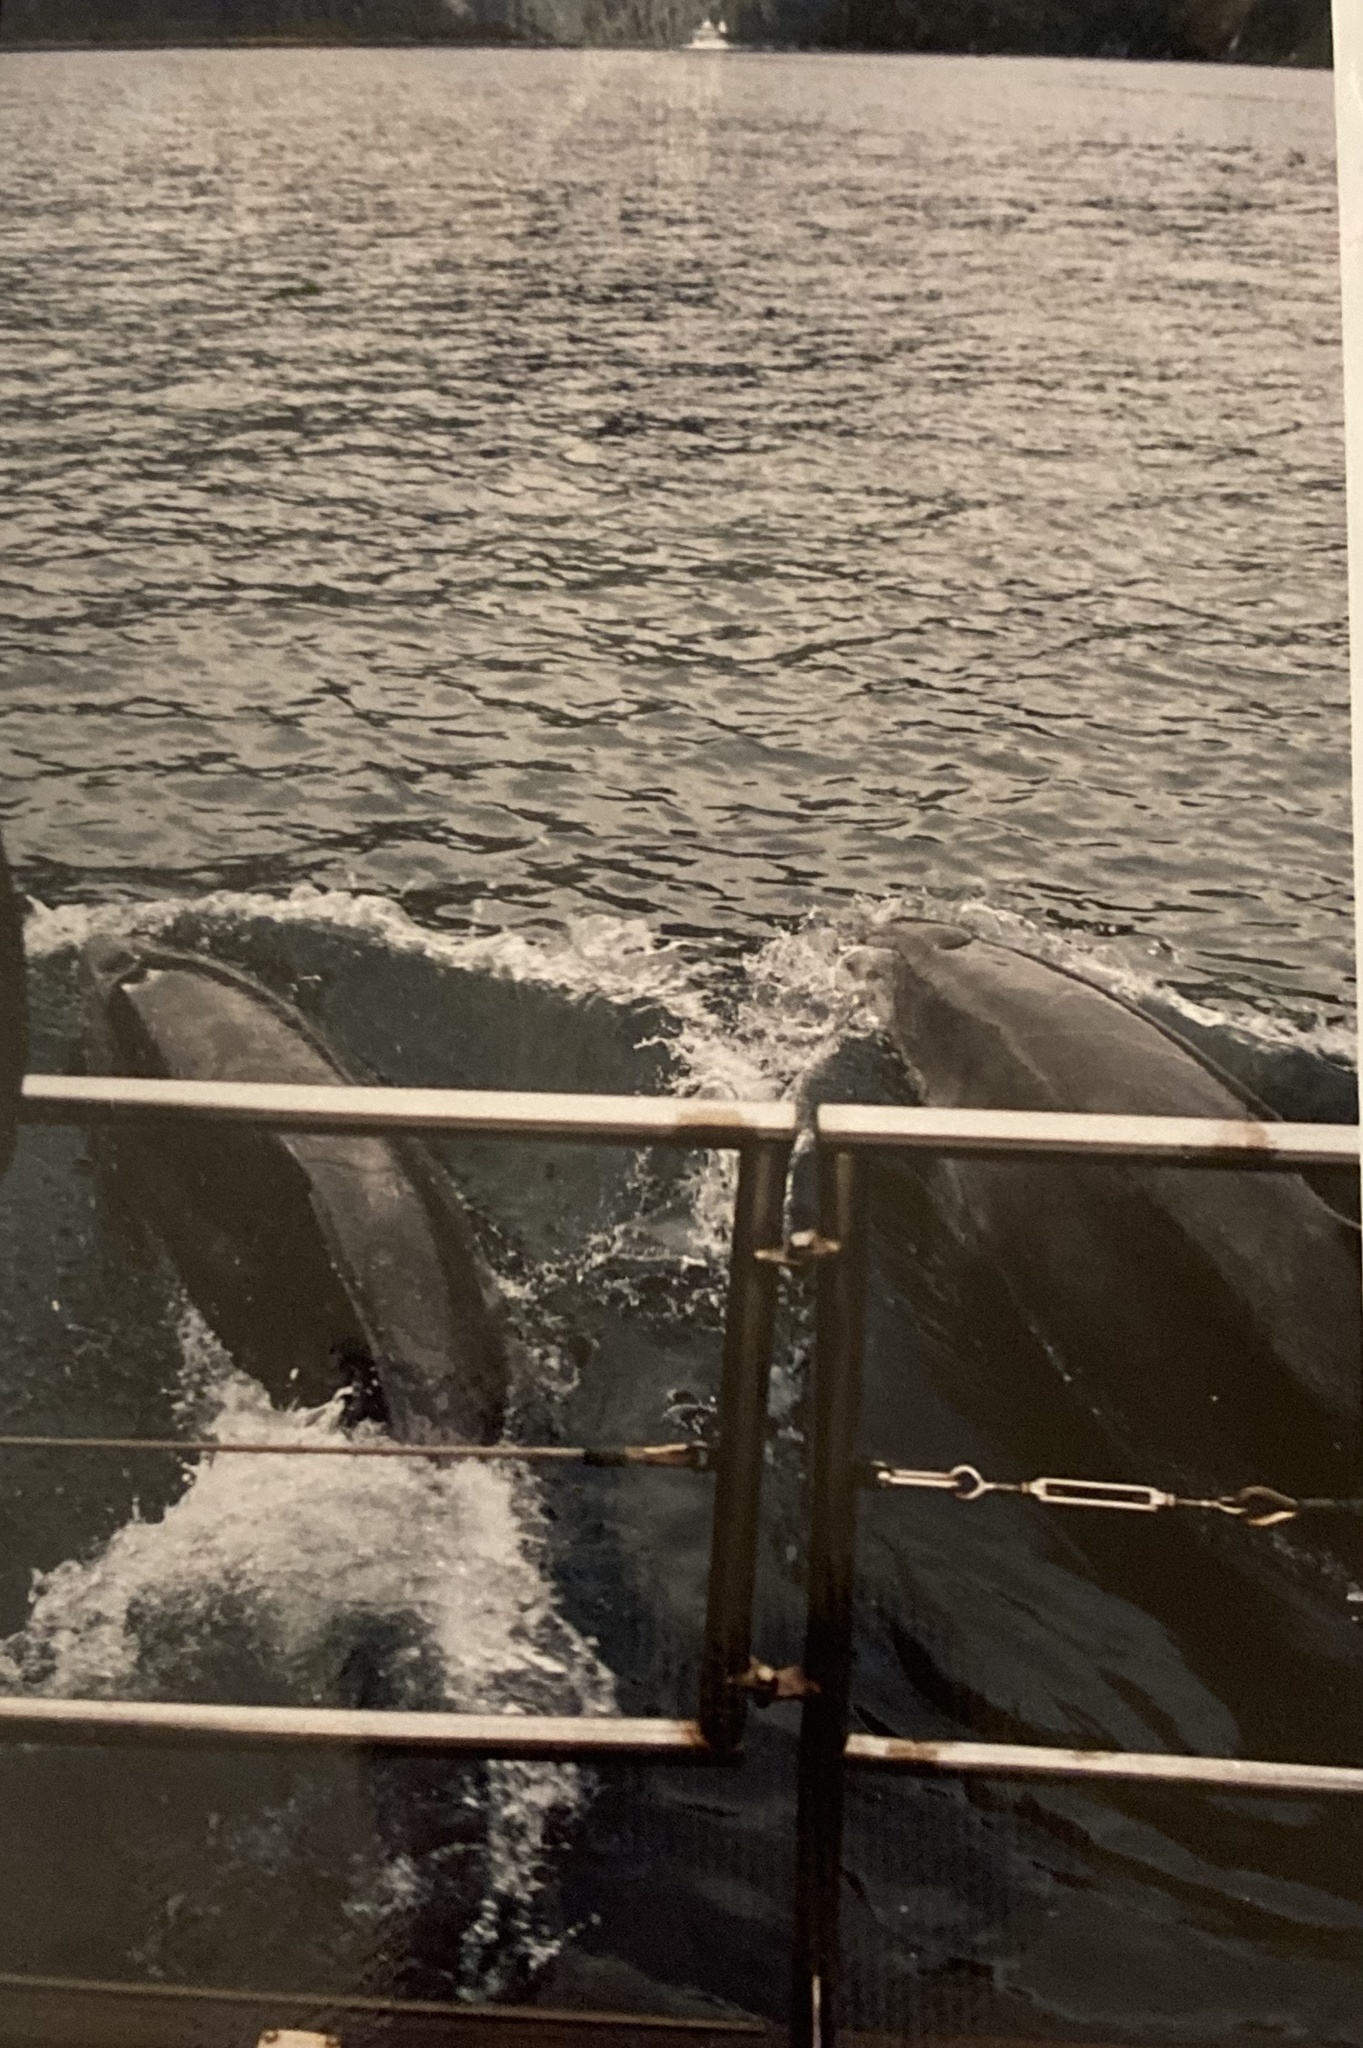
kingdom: Animalia
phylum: Chordata
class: Mammalia
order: Cetacea
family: Delphinidae
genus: Tursiops
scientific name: Tursiops truncatus
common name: Bottlenose dolphin
